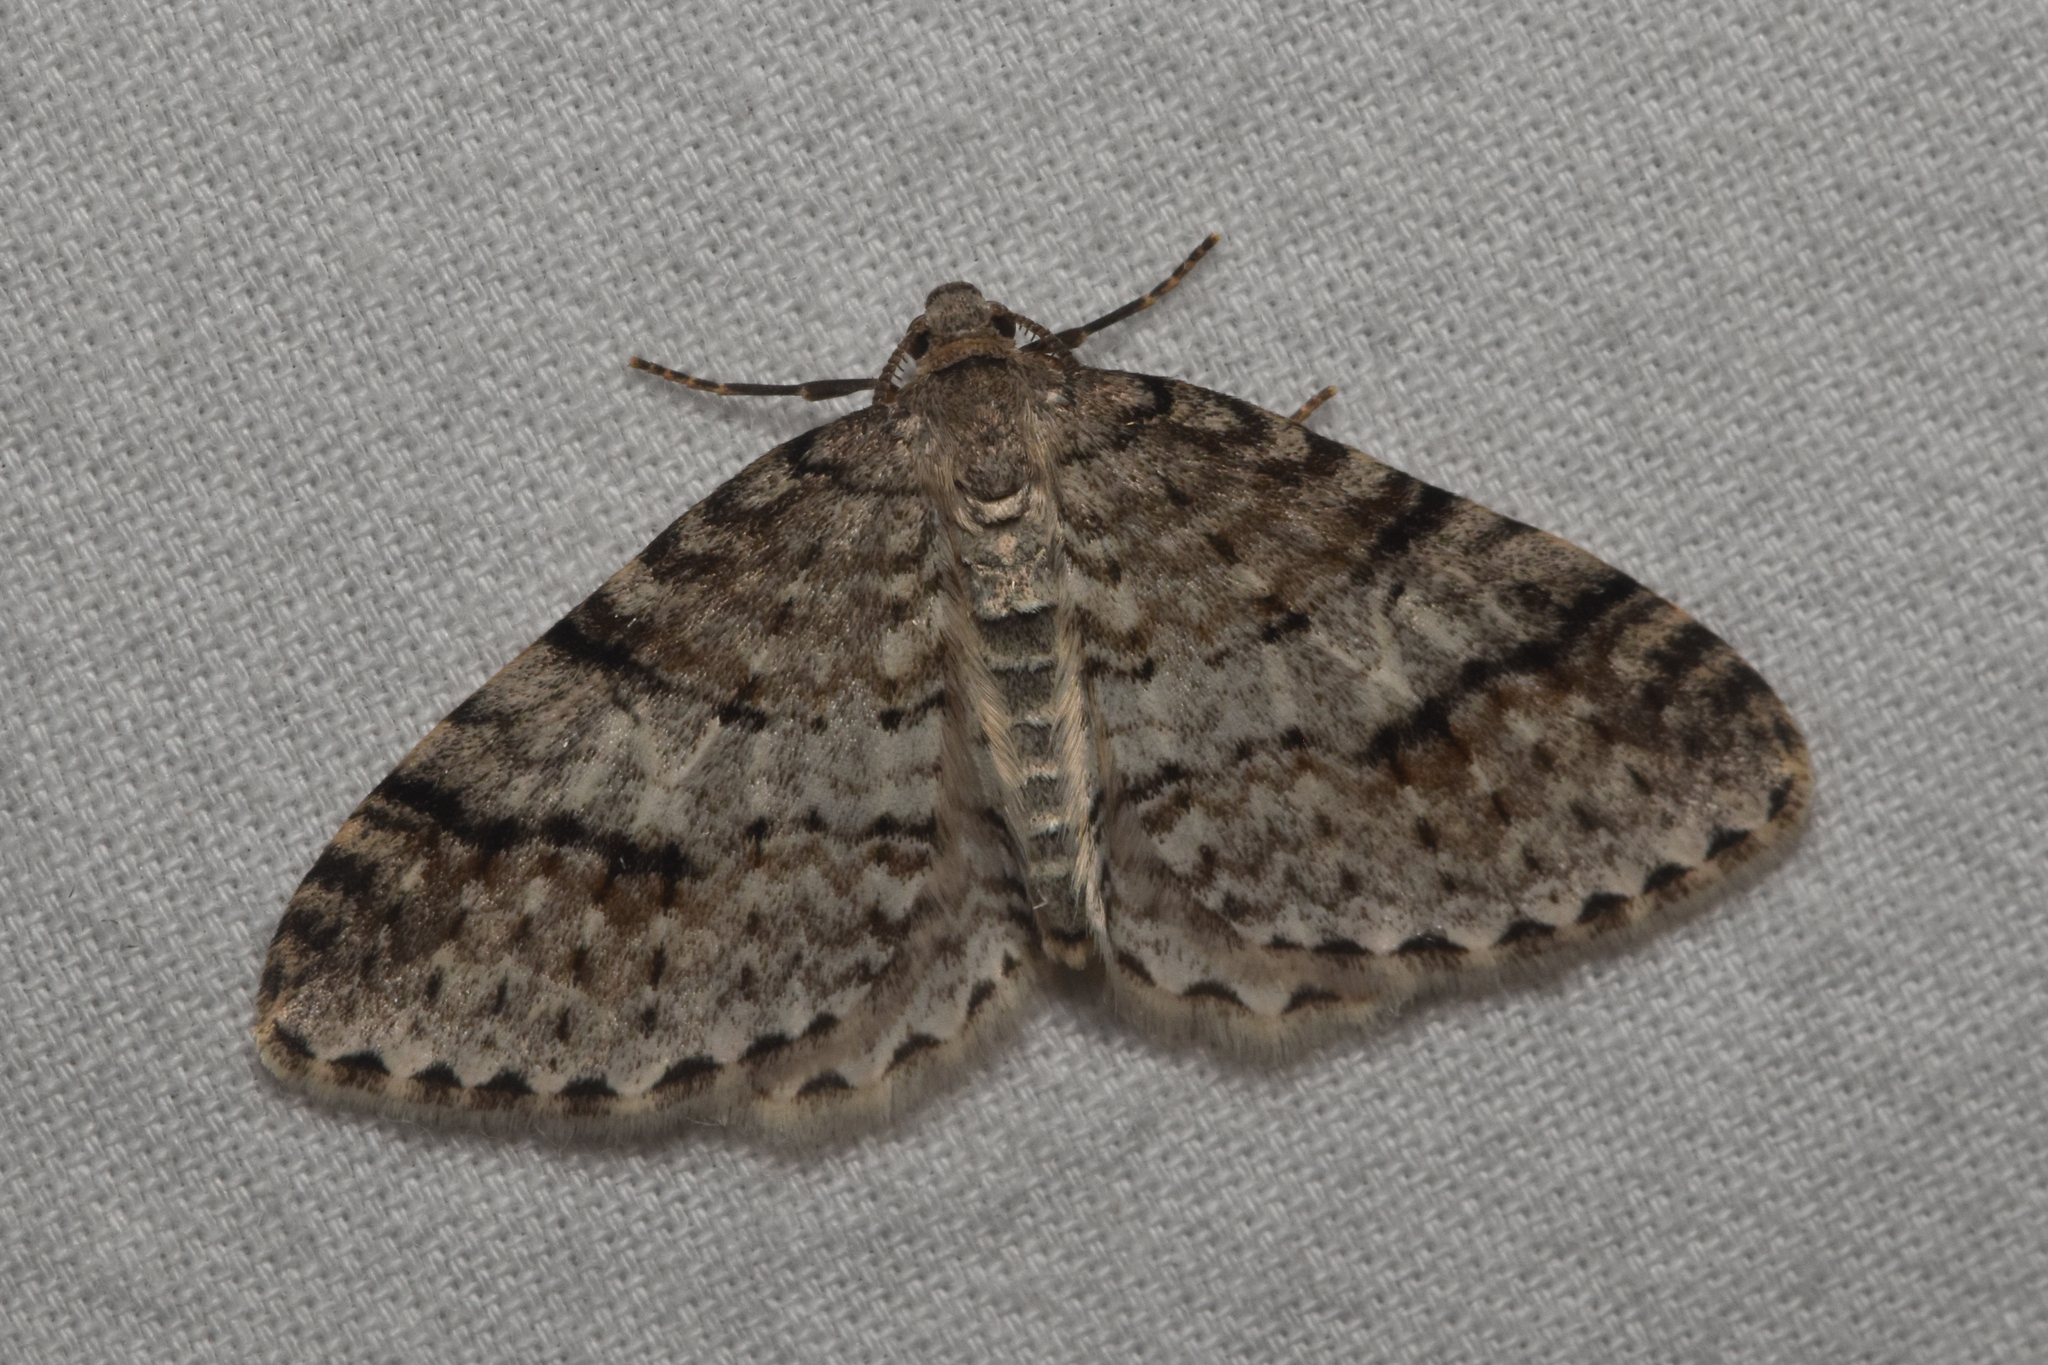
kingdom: Animalia
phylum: Arthropoda
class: Insecta
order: Lepidoptera
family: Geometridae
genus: Venusia
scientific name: Venusia cambrica
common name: Welsh wave
